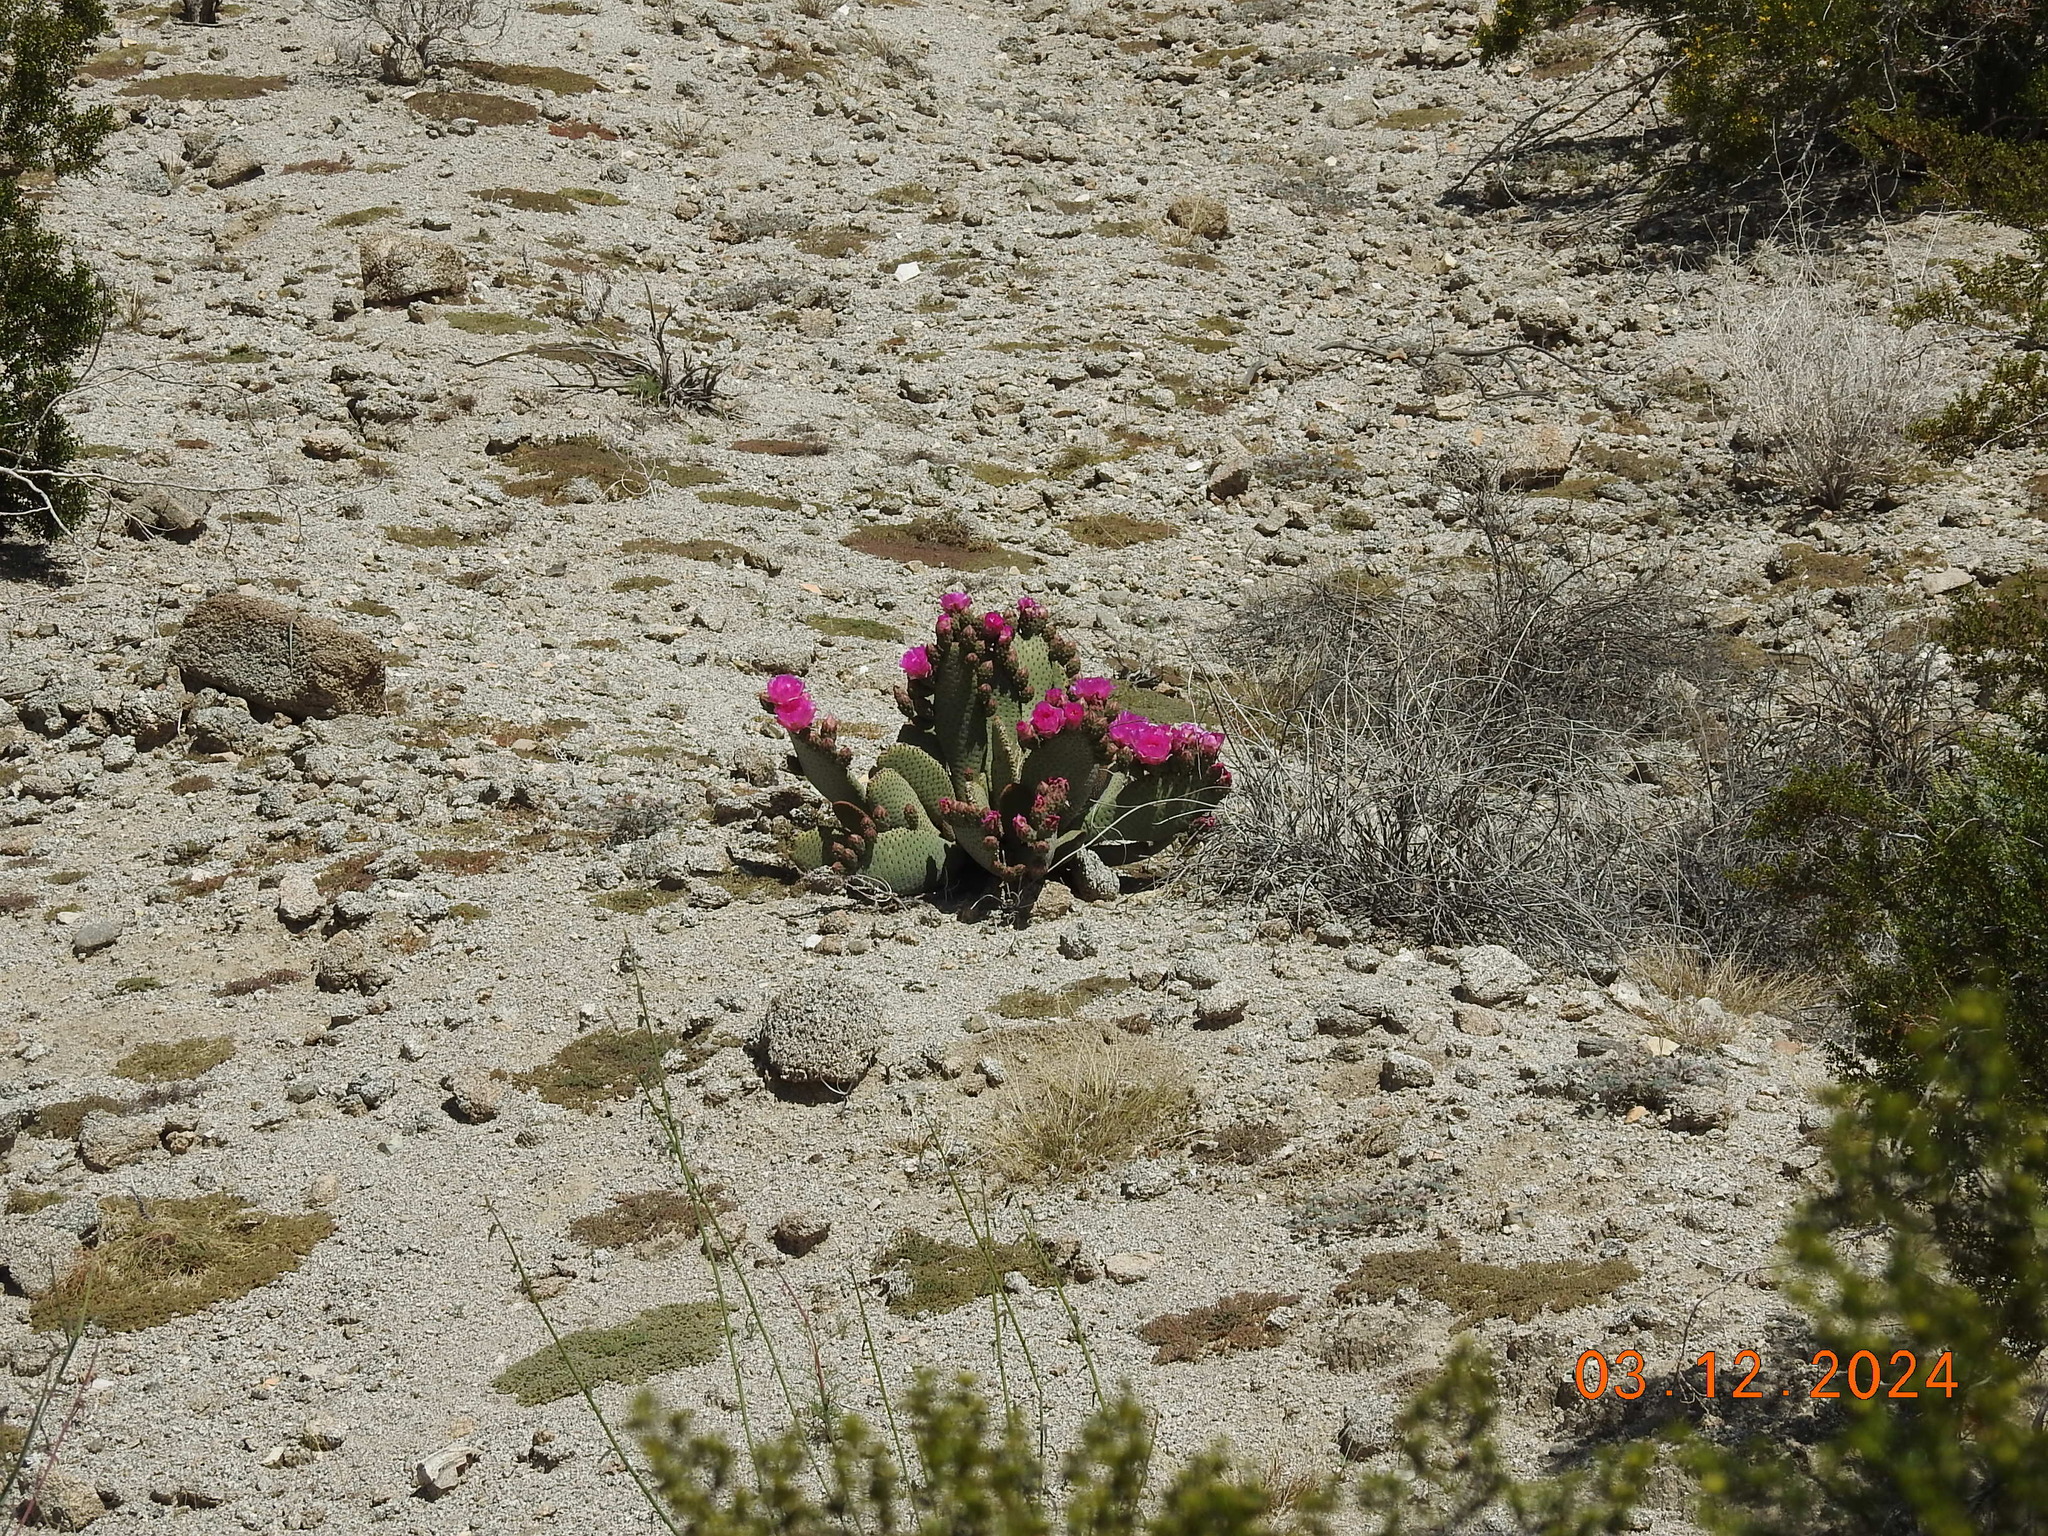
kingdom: Plantae
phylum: Tracheophyta
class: Magnoliopsida
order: Caryophyllales
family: Cactaceae
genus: Opuntia
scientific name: Opuntia basilaris
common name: Beavertail prickly-pear
